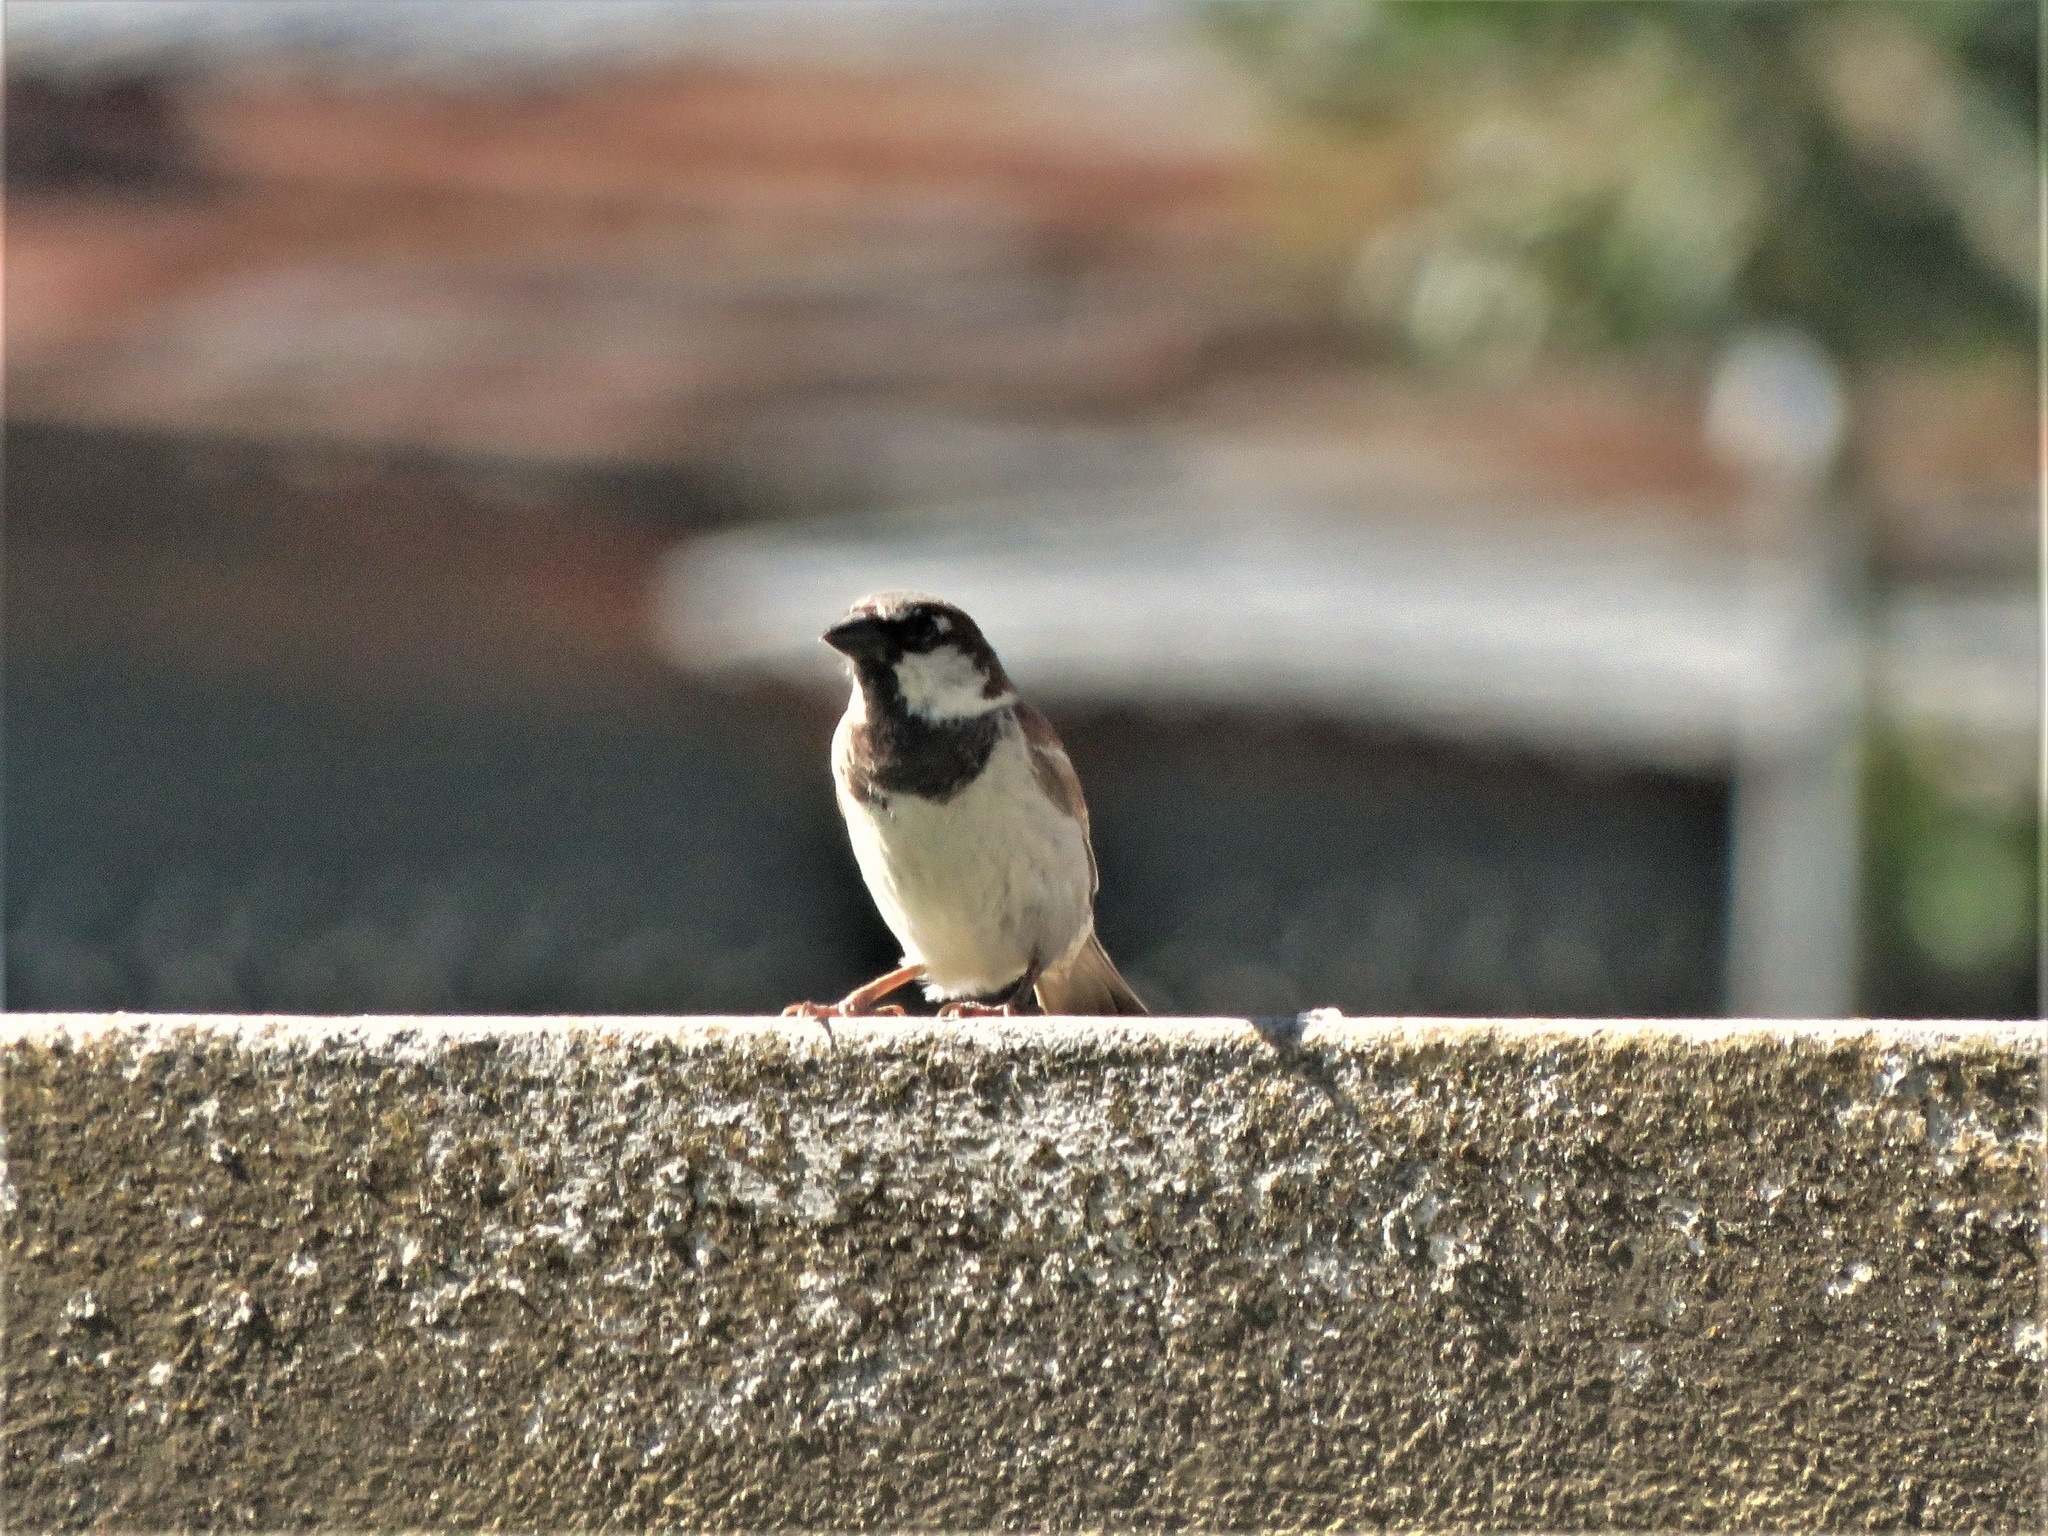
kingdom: Animalia
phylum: Chordata
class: Aves
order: Passeriformes
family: Passeridae
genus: Passer
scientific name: Passer domesticus
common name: House sparrow
